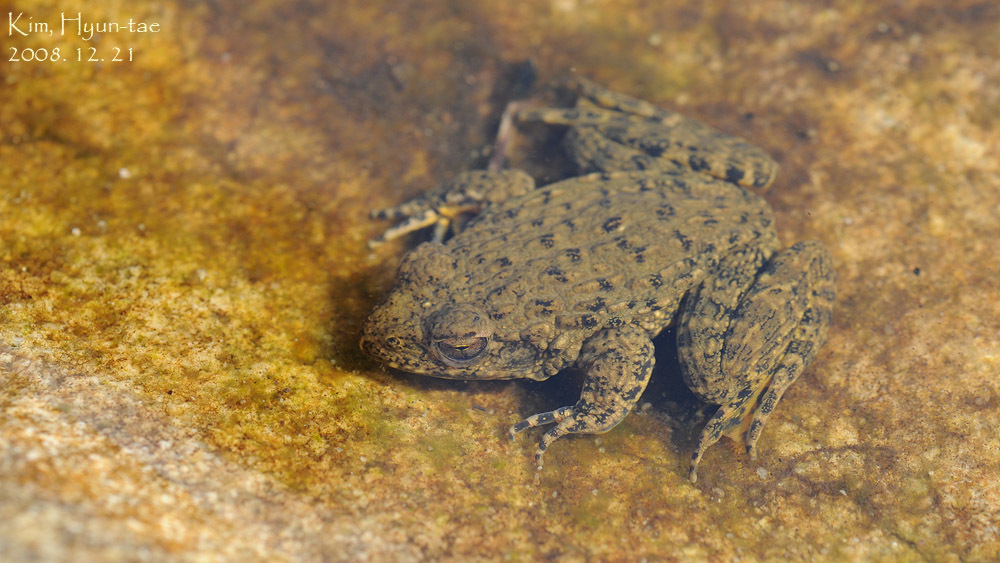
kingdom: Animalia
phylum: Chordata
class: Amphibia
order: Anura
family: Ranidae
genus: Glandirana
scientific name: Glandirana emeljanovi
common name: Northeast china rough-skinned frog
